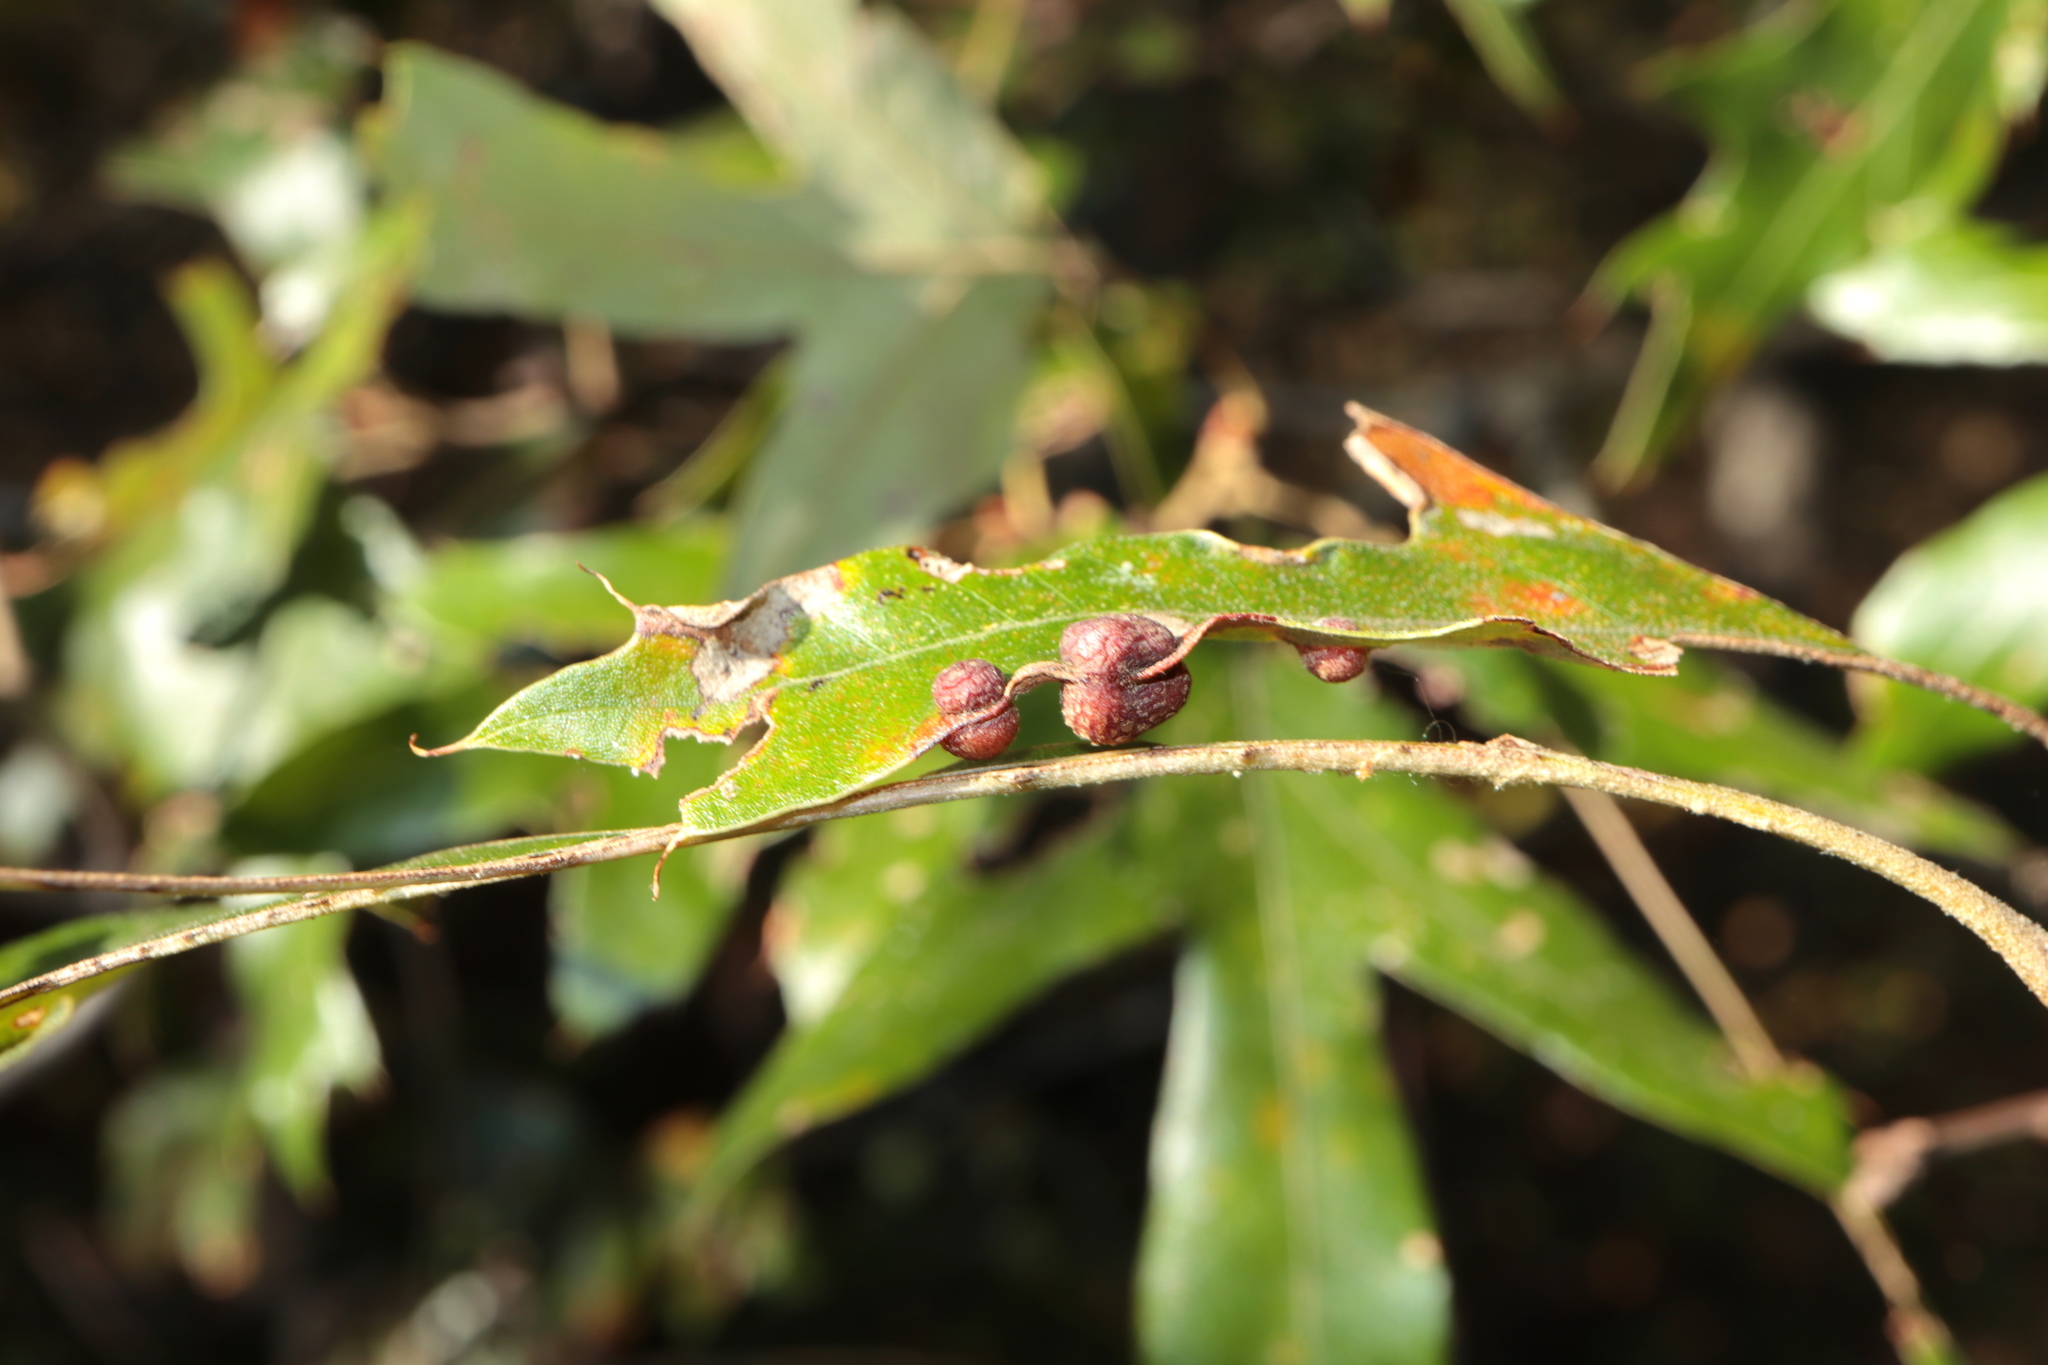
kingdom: Animalia
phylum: Arthropoda
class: Insecta
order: Diptera
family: Cecidomyiidae
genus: Polystepha
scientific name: Polystepha symmetrica
